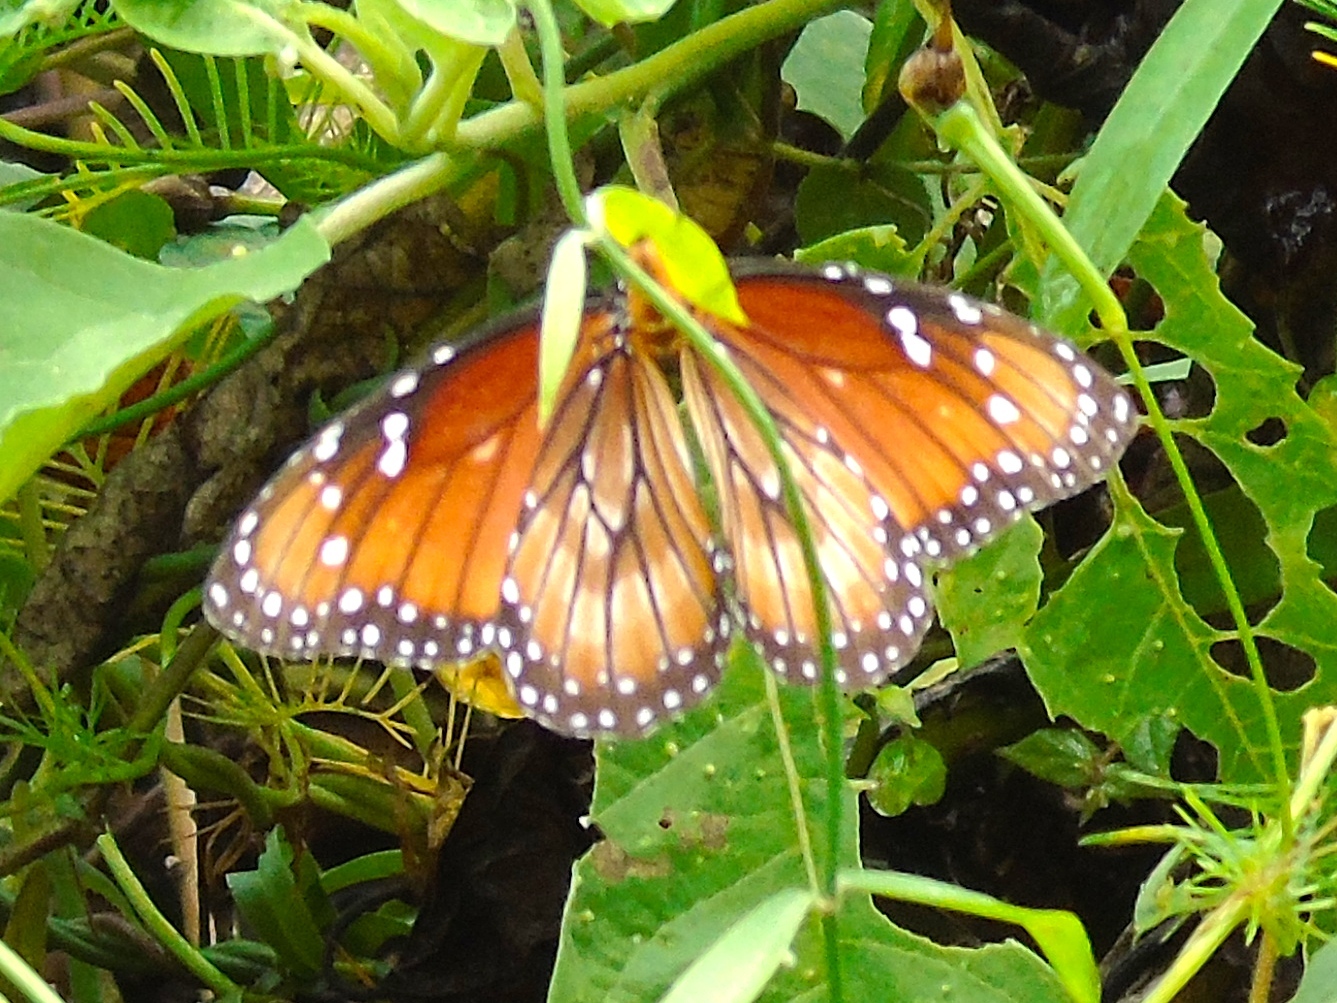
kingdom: Animalia
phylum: Arthropoda
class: Insecta
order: Lepidoptera
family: Nymphalidae
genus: Danaus
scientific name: Danaus eresimus
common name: Soldier
